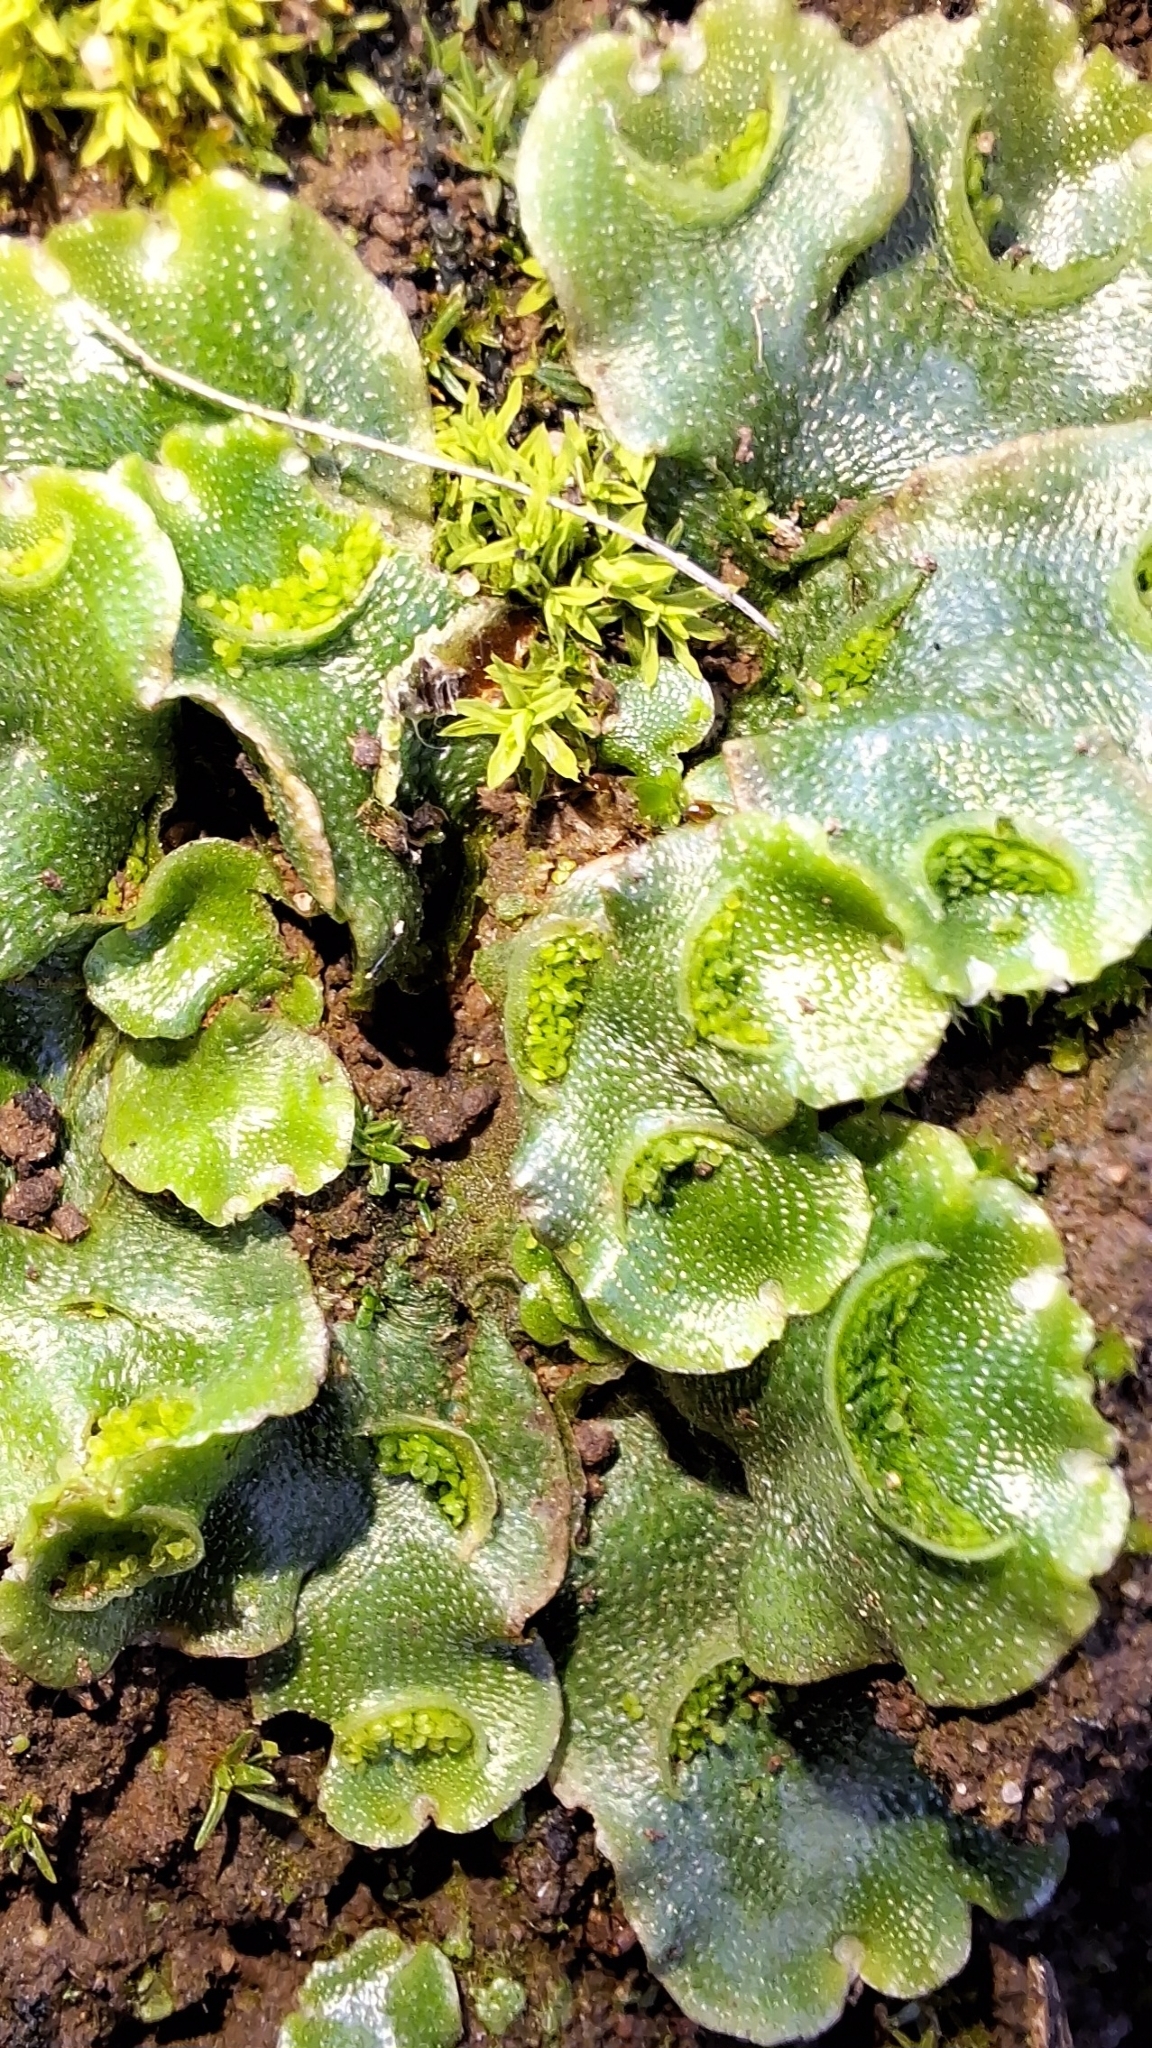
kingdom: Plantae
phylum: Marchantiophyta
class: Marchantiopsida
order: Lunulariales
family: Lunulariaceae
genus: Lunularia
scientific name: Lunularia cruciata
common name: Crescent-cup liverwort
